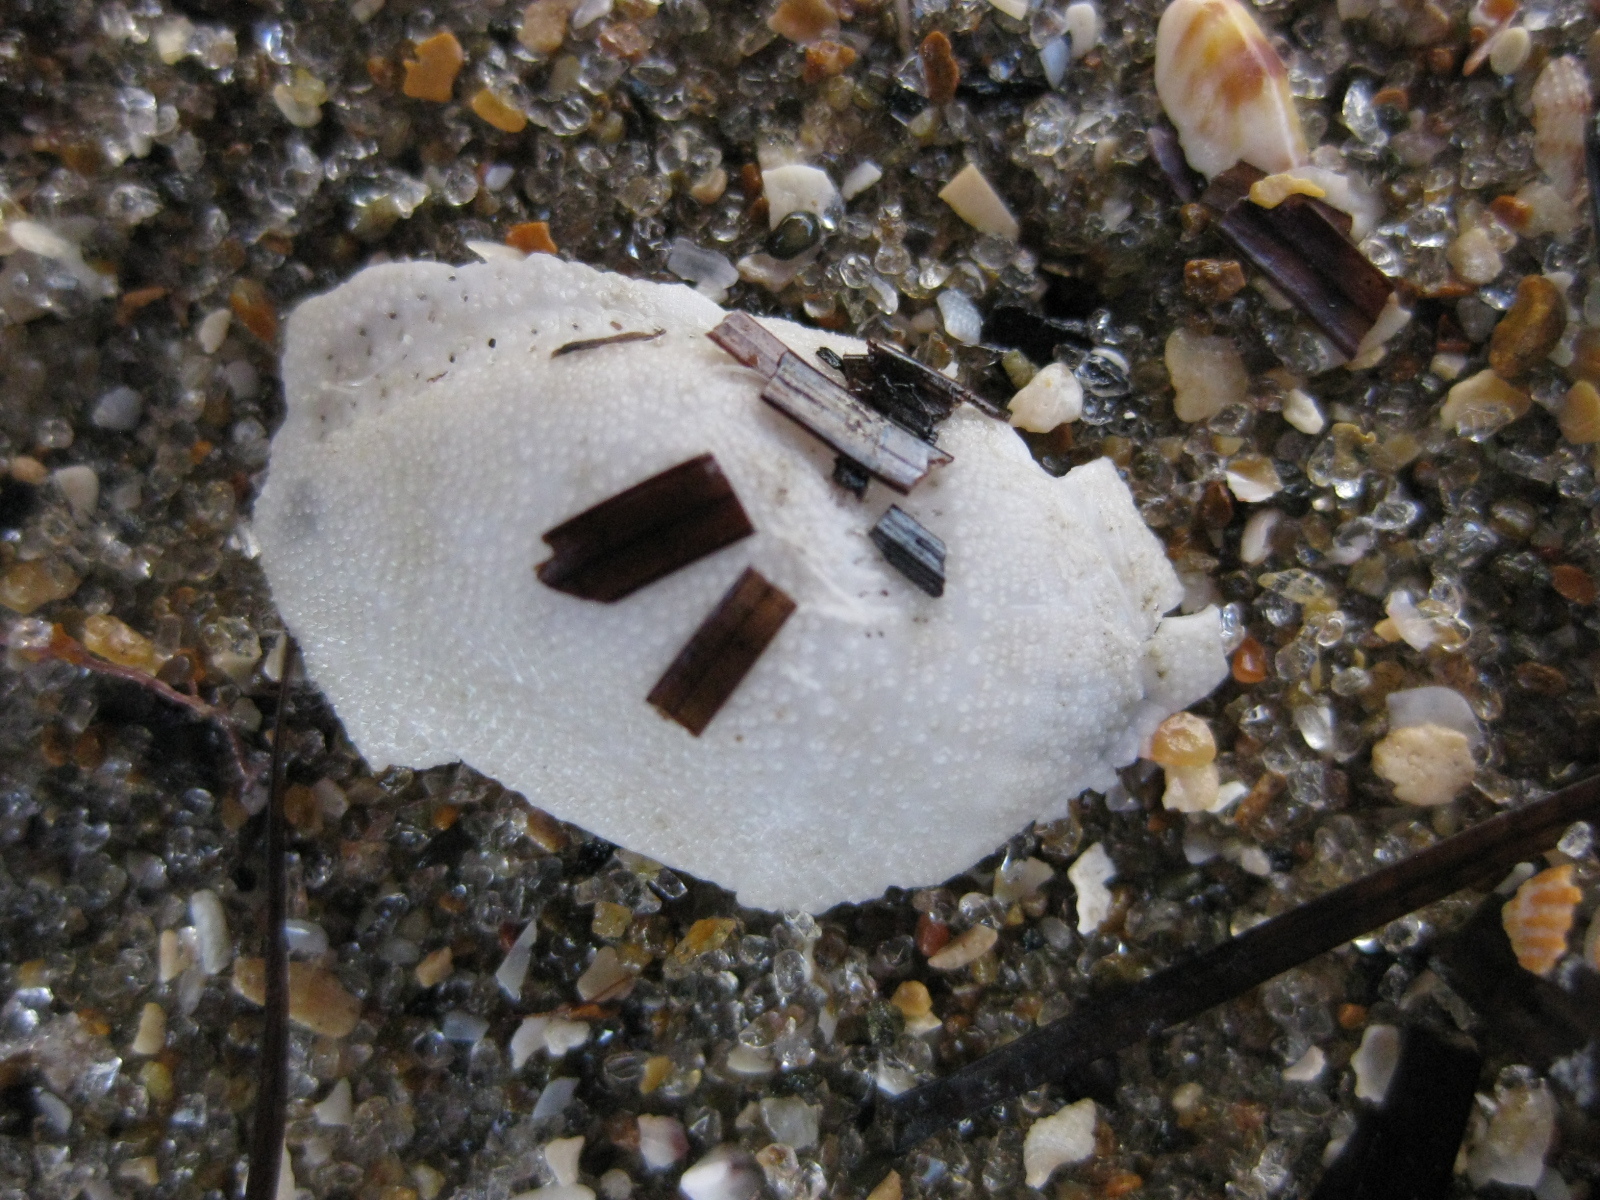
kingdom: Animalia
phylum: Echinodermata
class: Echinoidea
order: Spatangoida
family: Loveniidae
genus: Echinocardium
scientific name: Echinocardium cordatum
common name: Heart-urchin
